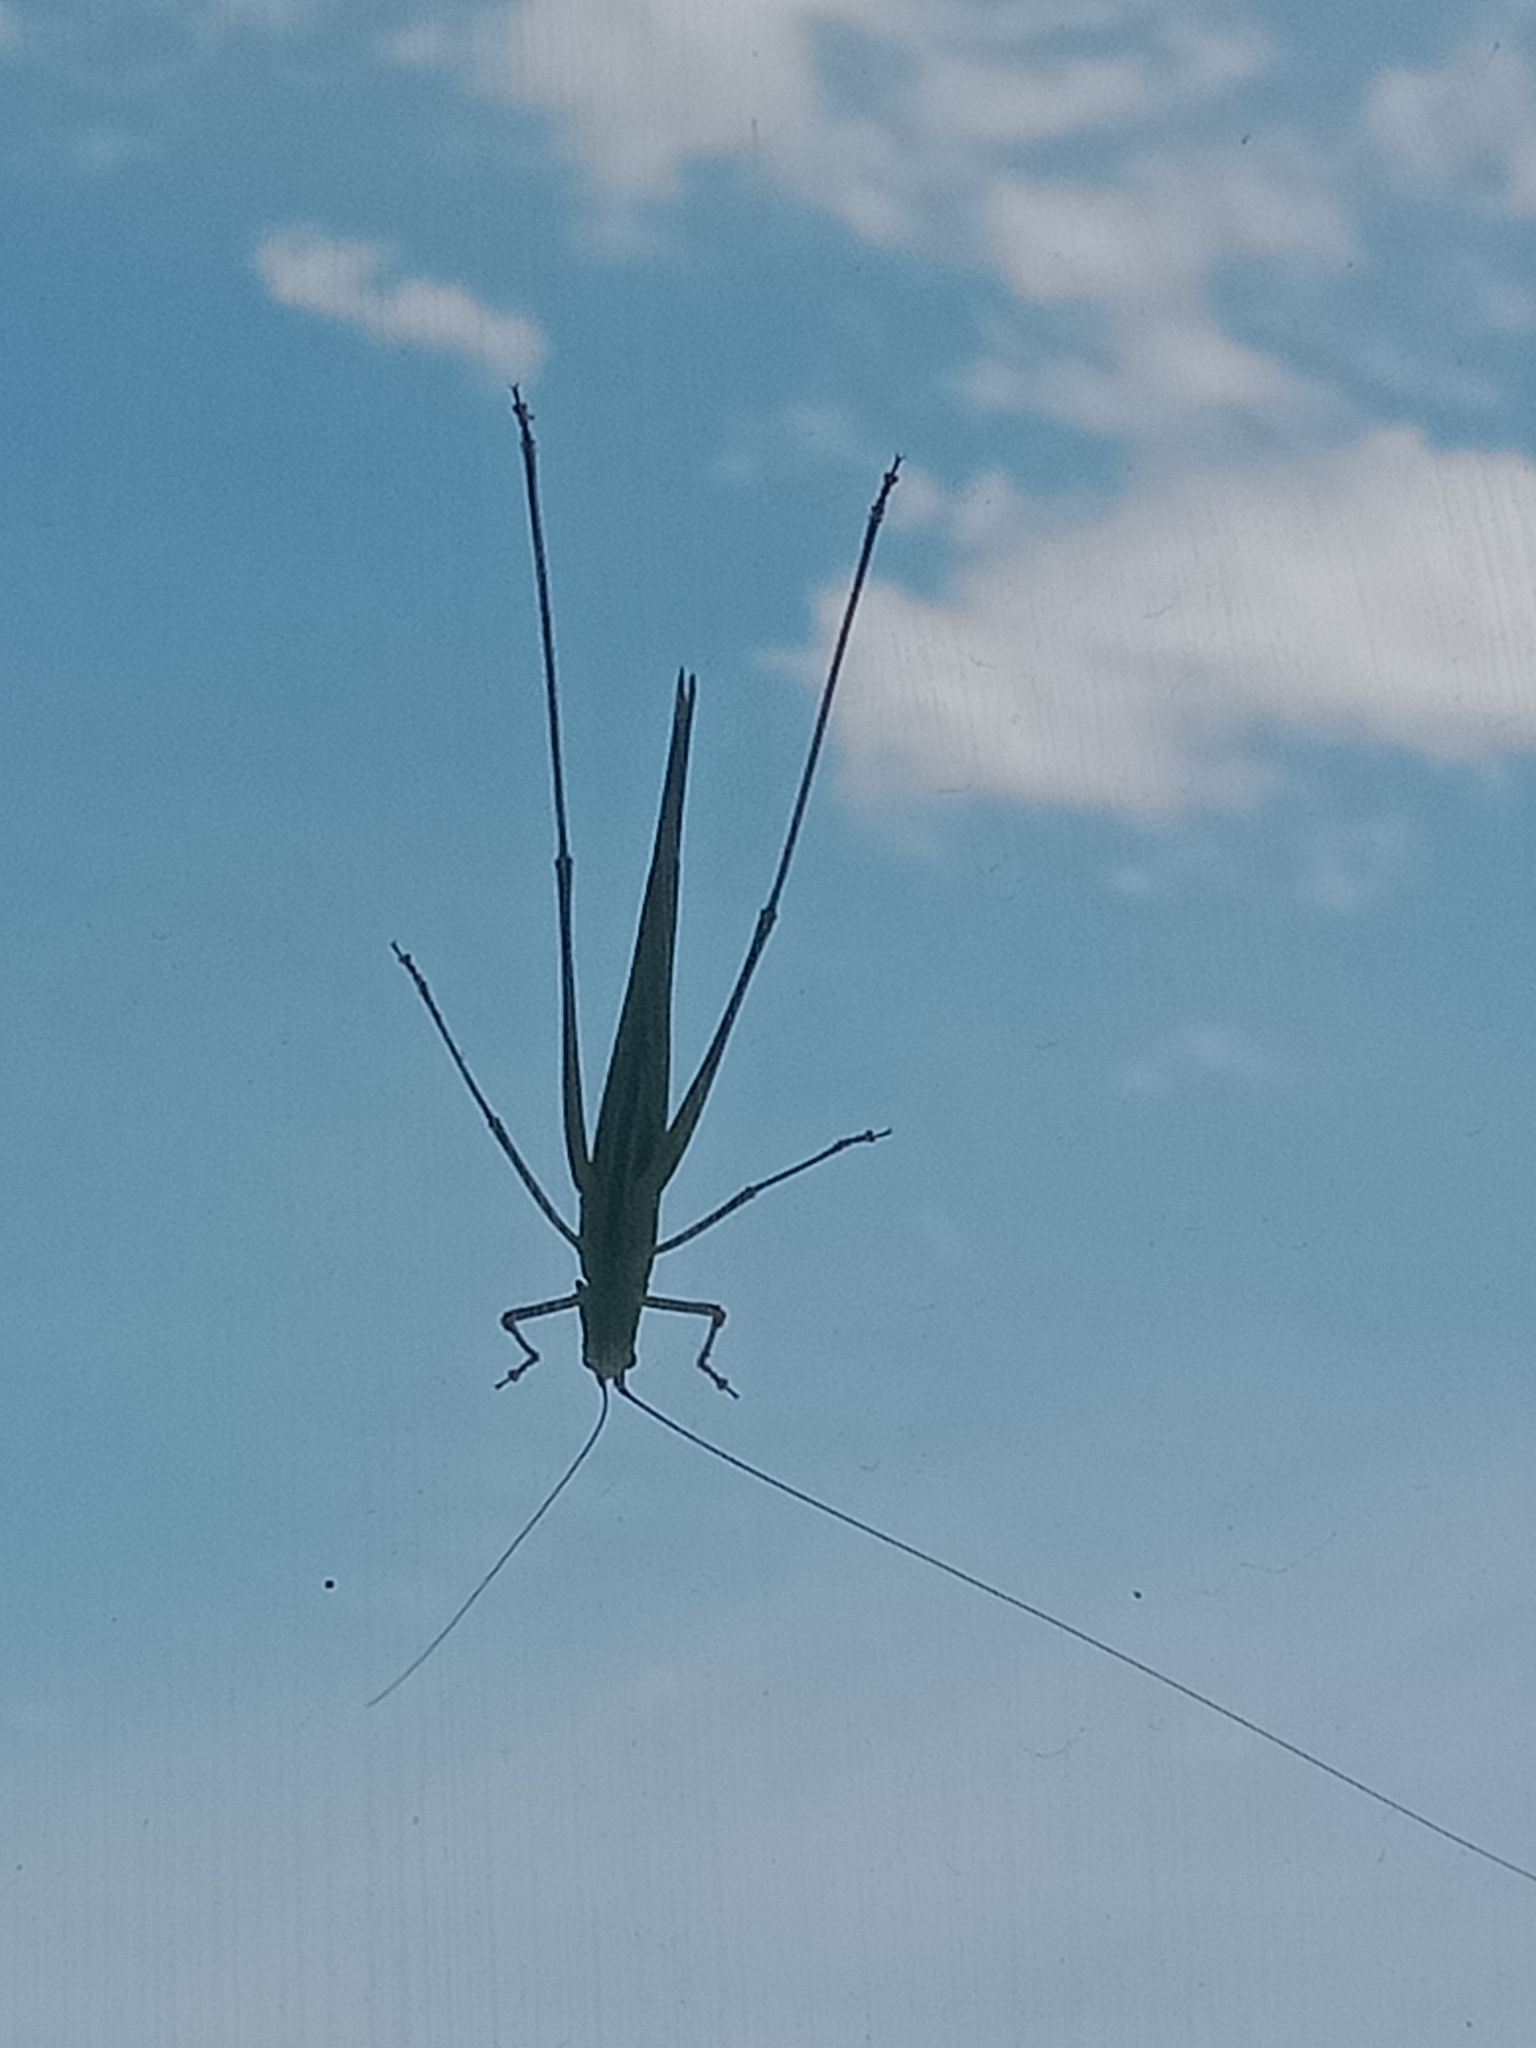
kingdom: Animalia
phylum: Arthropoda
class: Insecta
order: Orthoptera
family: Tettigoniidae
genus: Phaneroptera
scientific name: Phaneroptera gracilis
